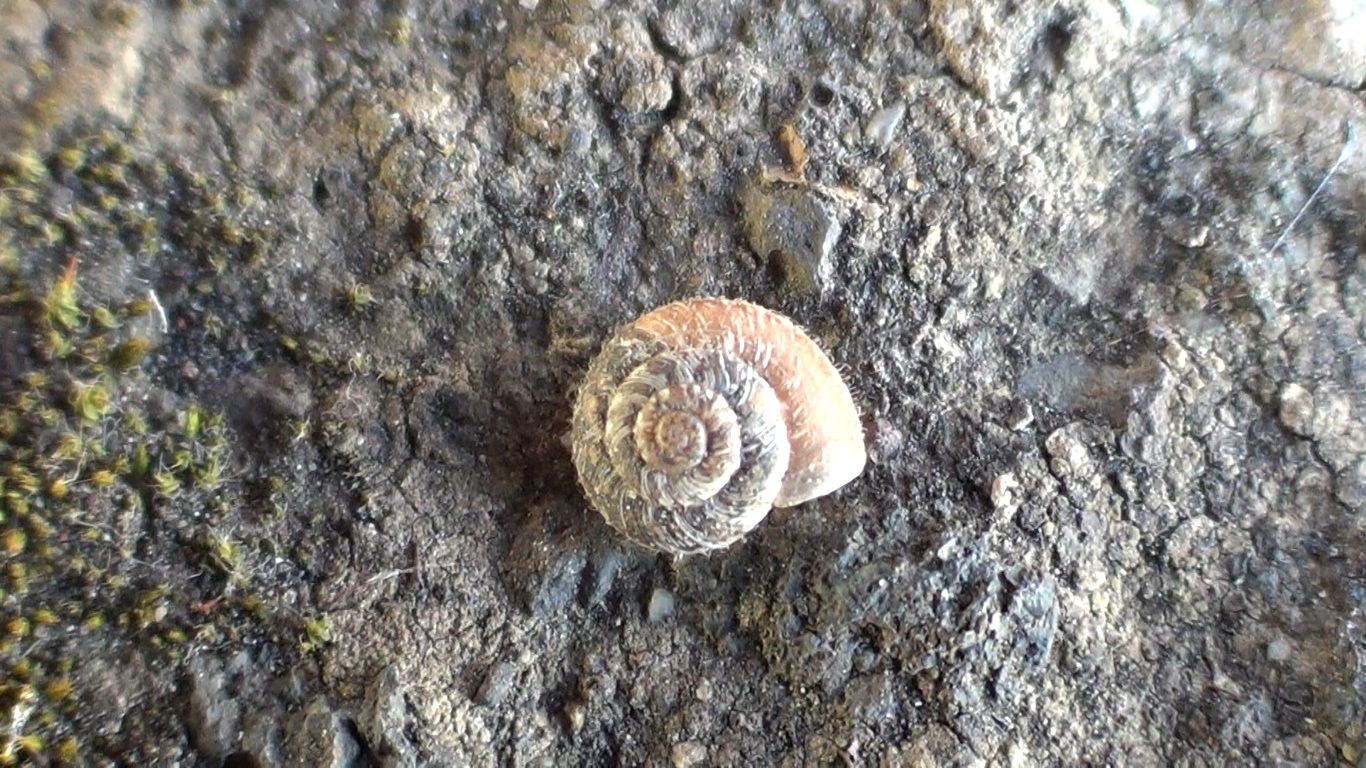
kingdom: Animalia
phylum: Mollusca
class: Gastropoda
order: Stylommatophora
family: Geomitridae
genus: Xerotricha
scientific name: Xerotricha conspurcata
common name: Snail
